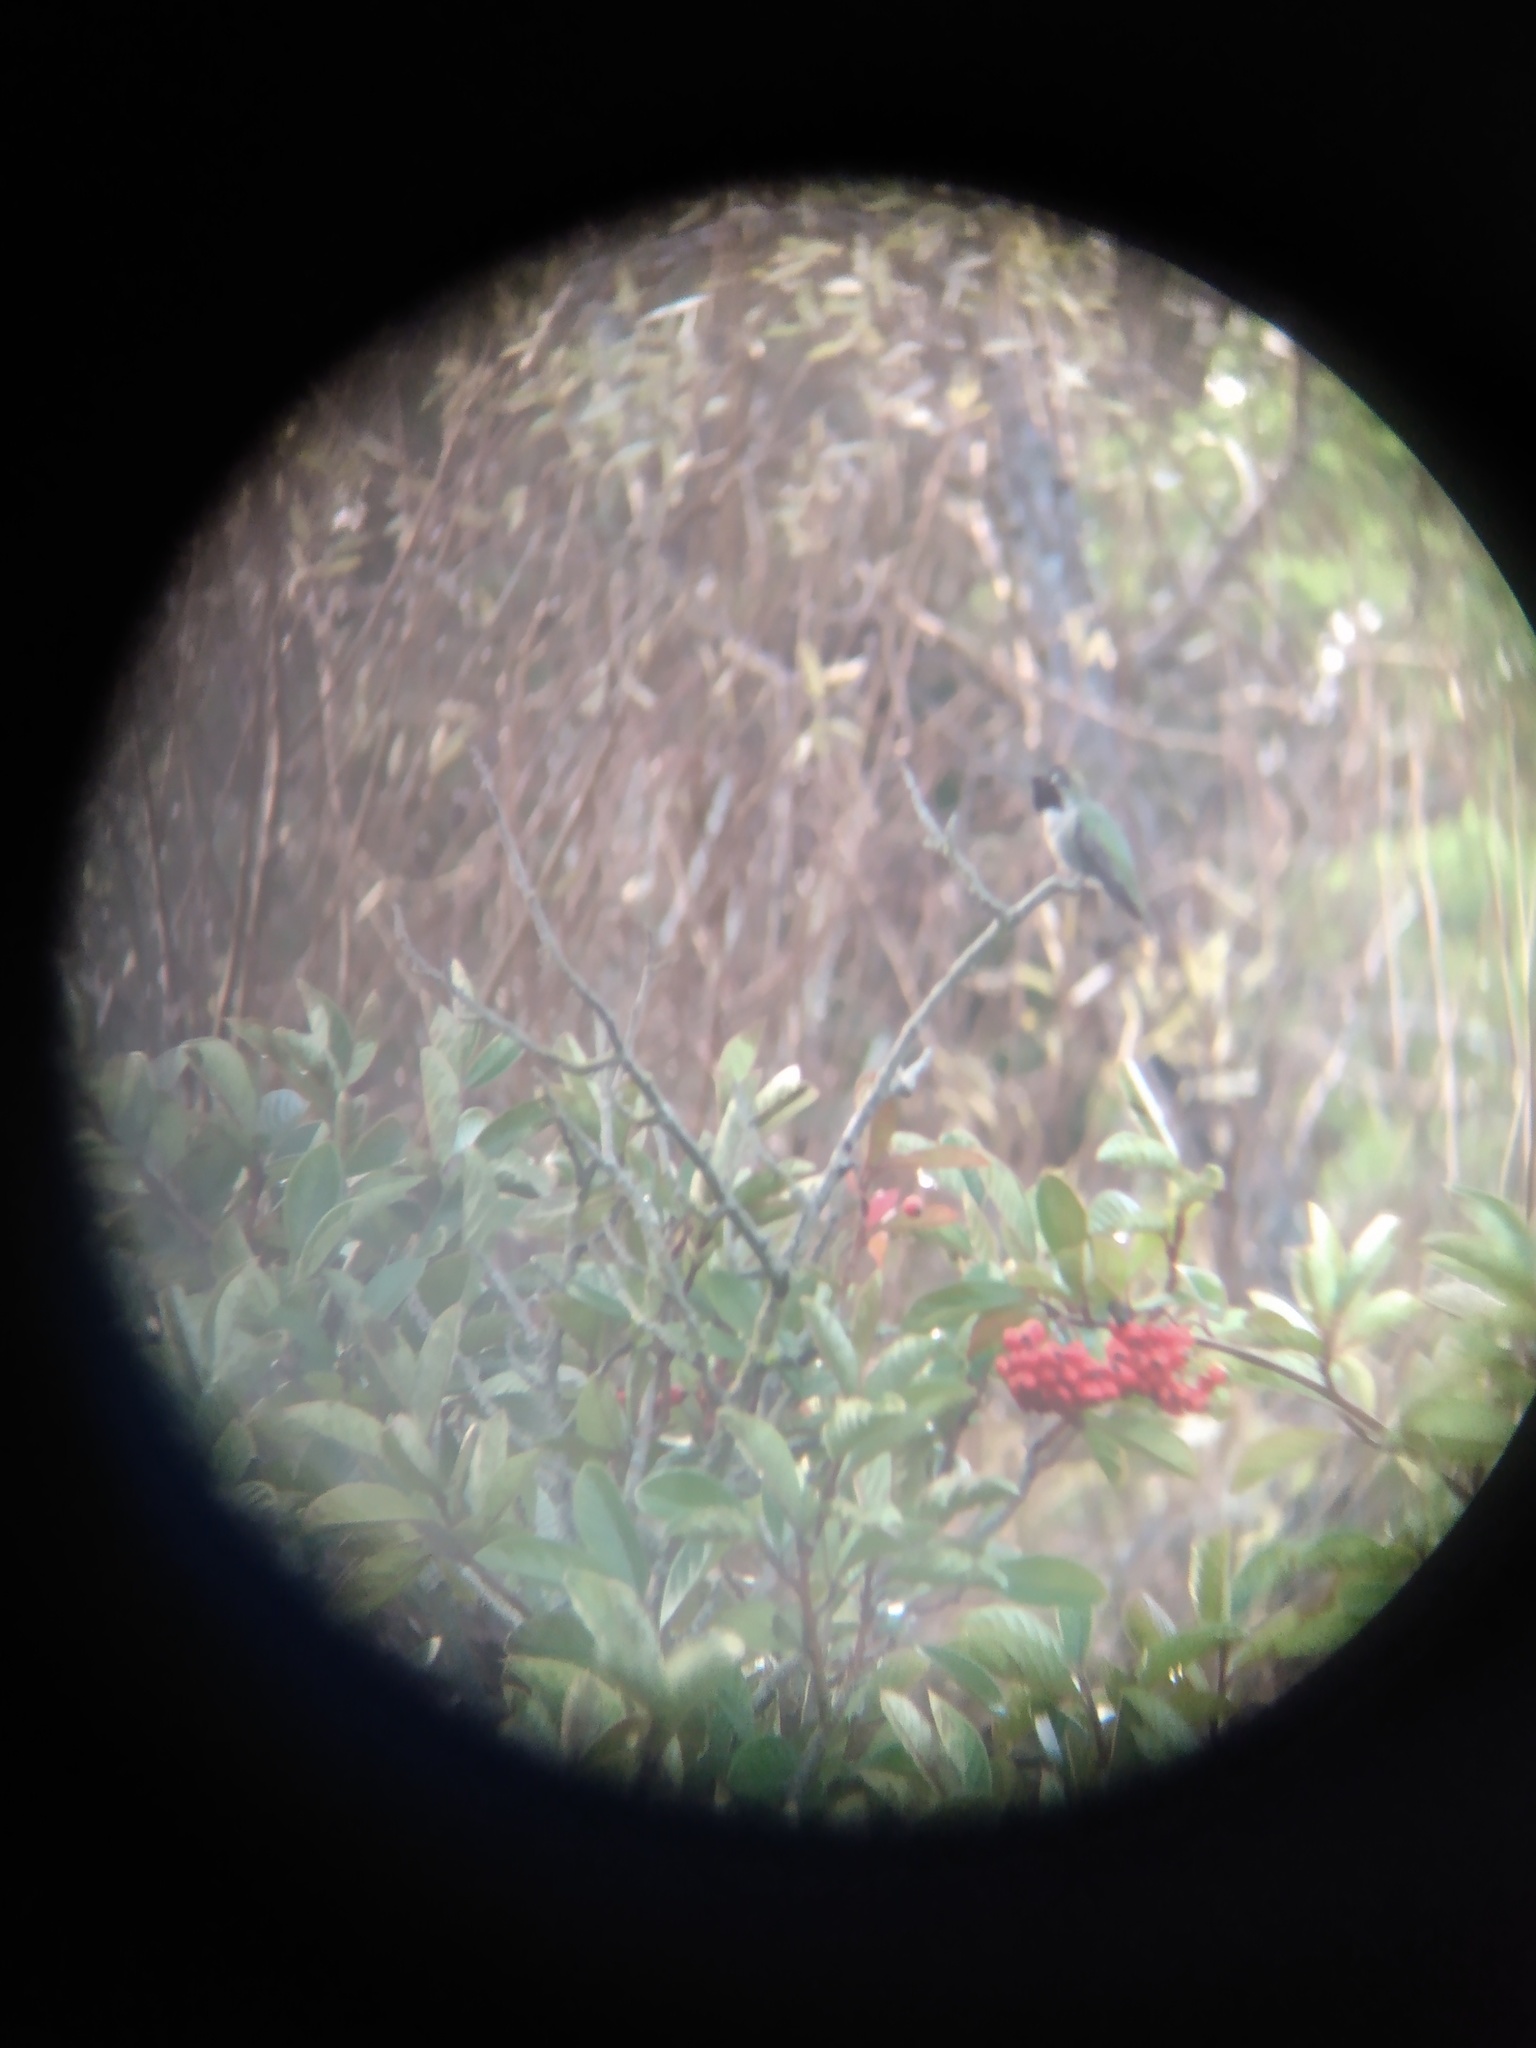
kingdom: Animalia
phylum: Chordata
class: Aves
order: Apodiformes
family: Trochilidae
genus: Calypte
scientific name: Calypte anna
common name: Anna's hummingbird
